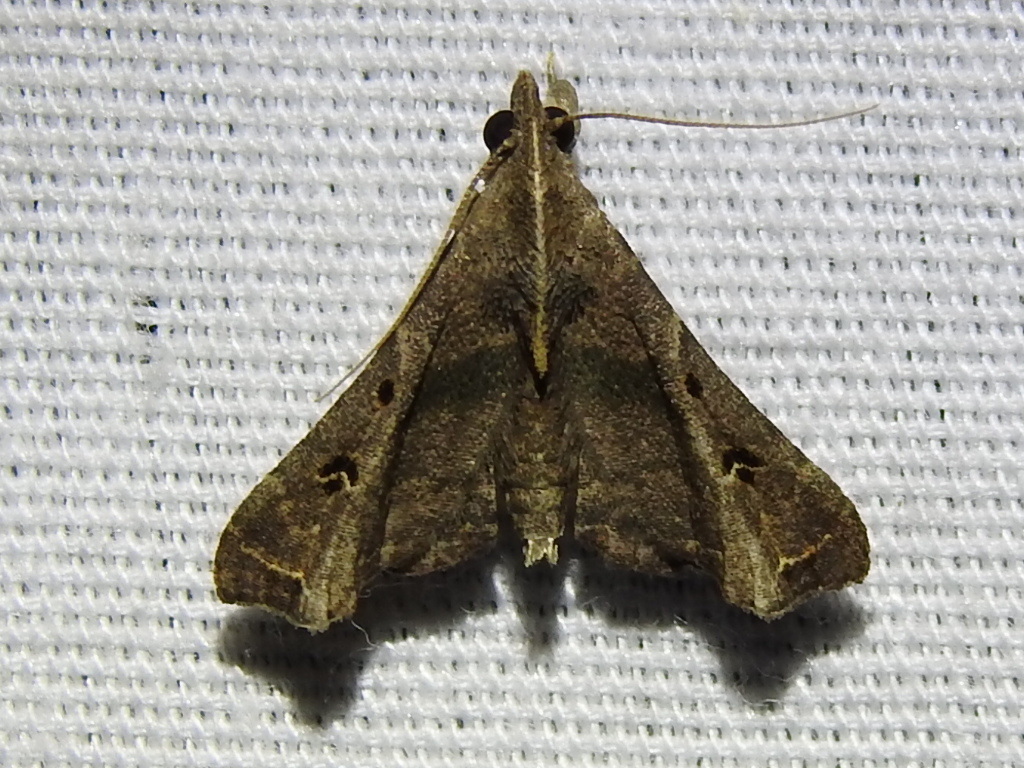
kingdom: Animalia
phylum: Arthropoda
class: Insecta
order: Lepidoptera
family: Erebidae
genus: Palthis
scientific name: Palthis asopialis
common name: Faint-spotted palthis moth
